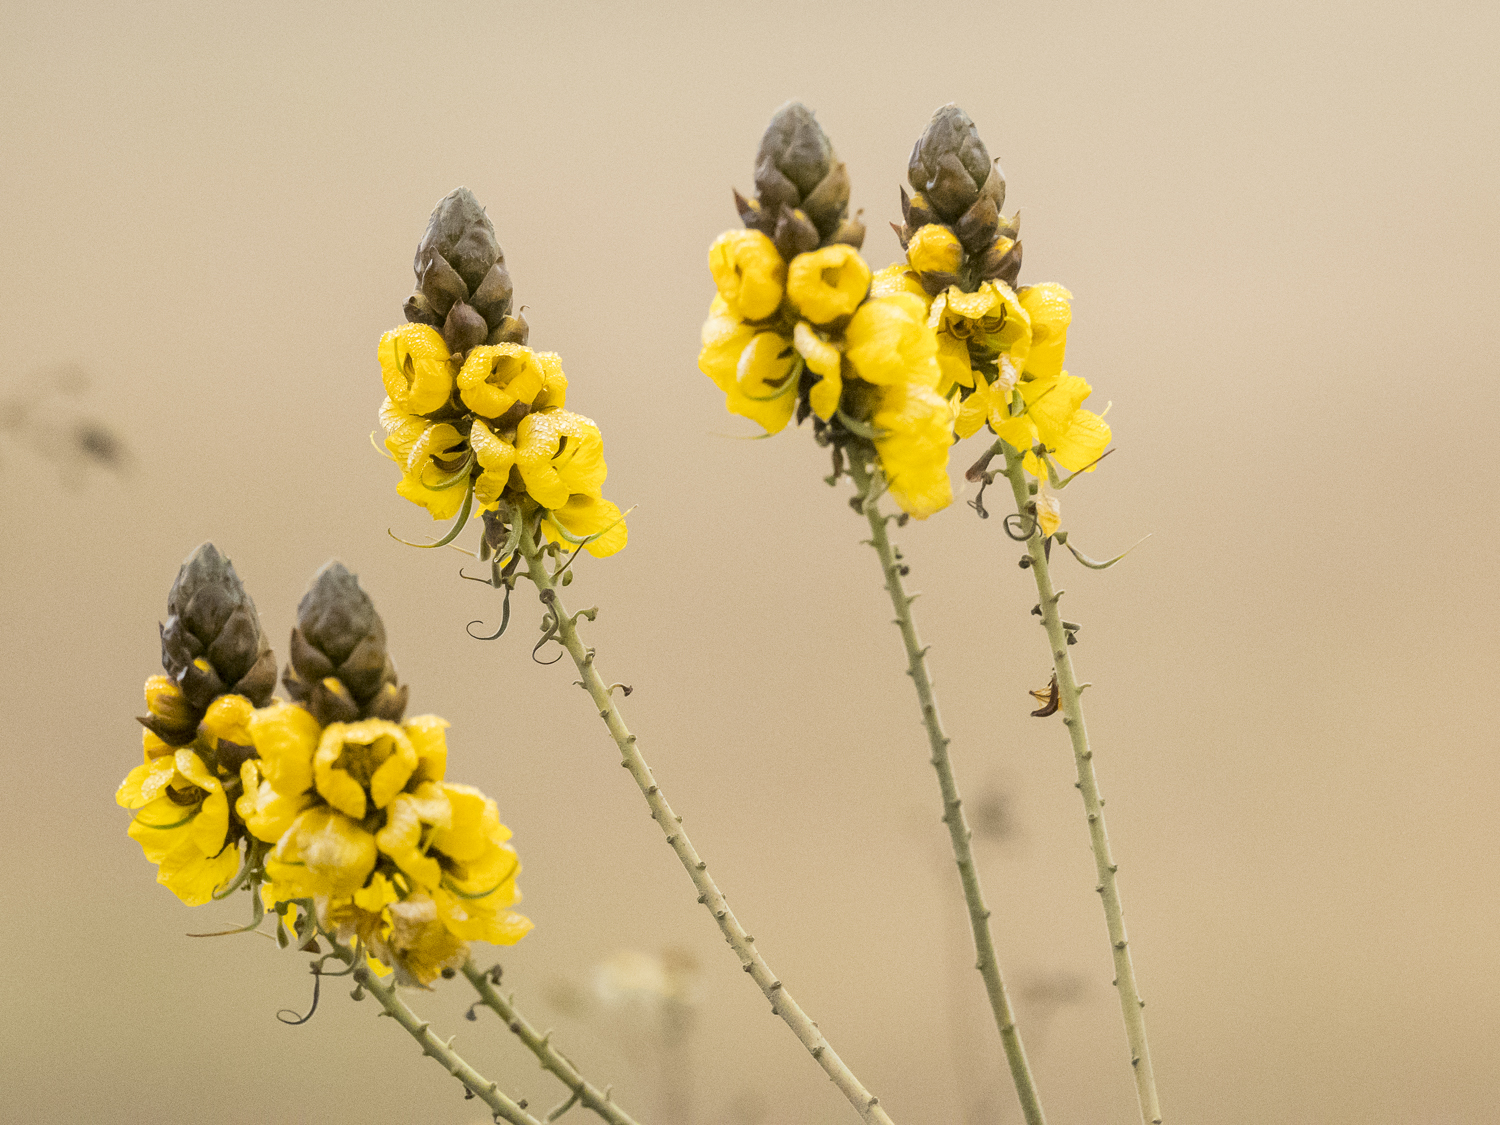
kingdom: Plantae
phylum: Tracheophyta
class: Magnoliopsida
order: Fabales
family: Fabaceae
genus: Senna
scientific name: Senna didymobotrya
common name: African senna
